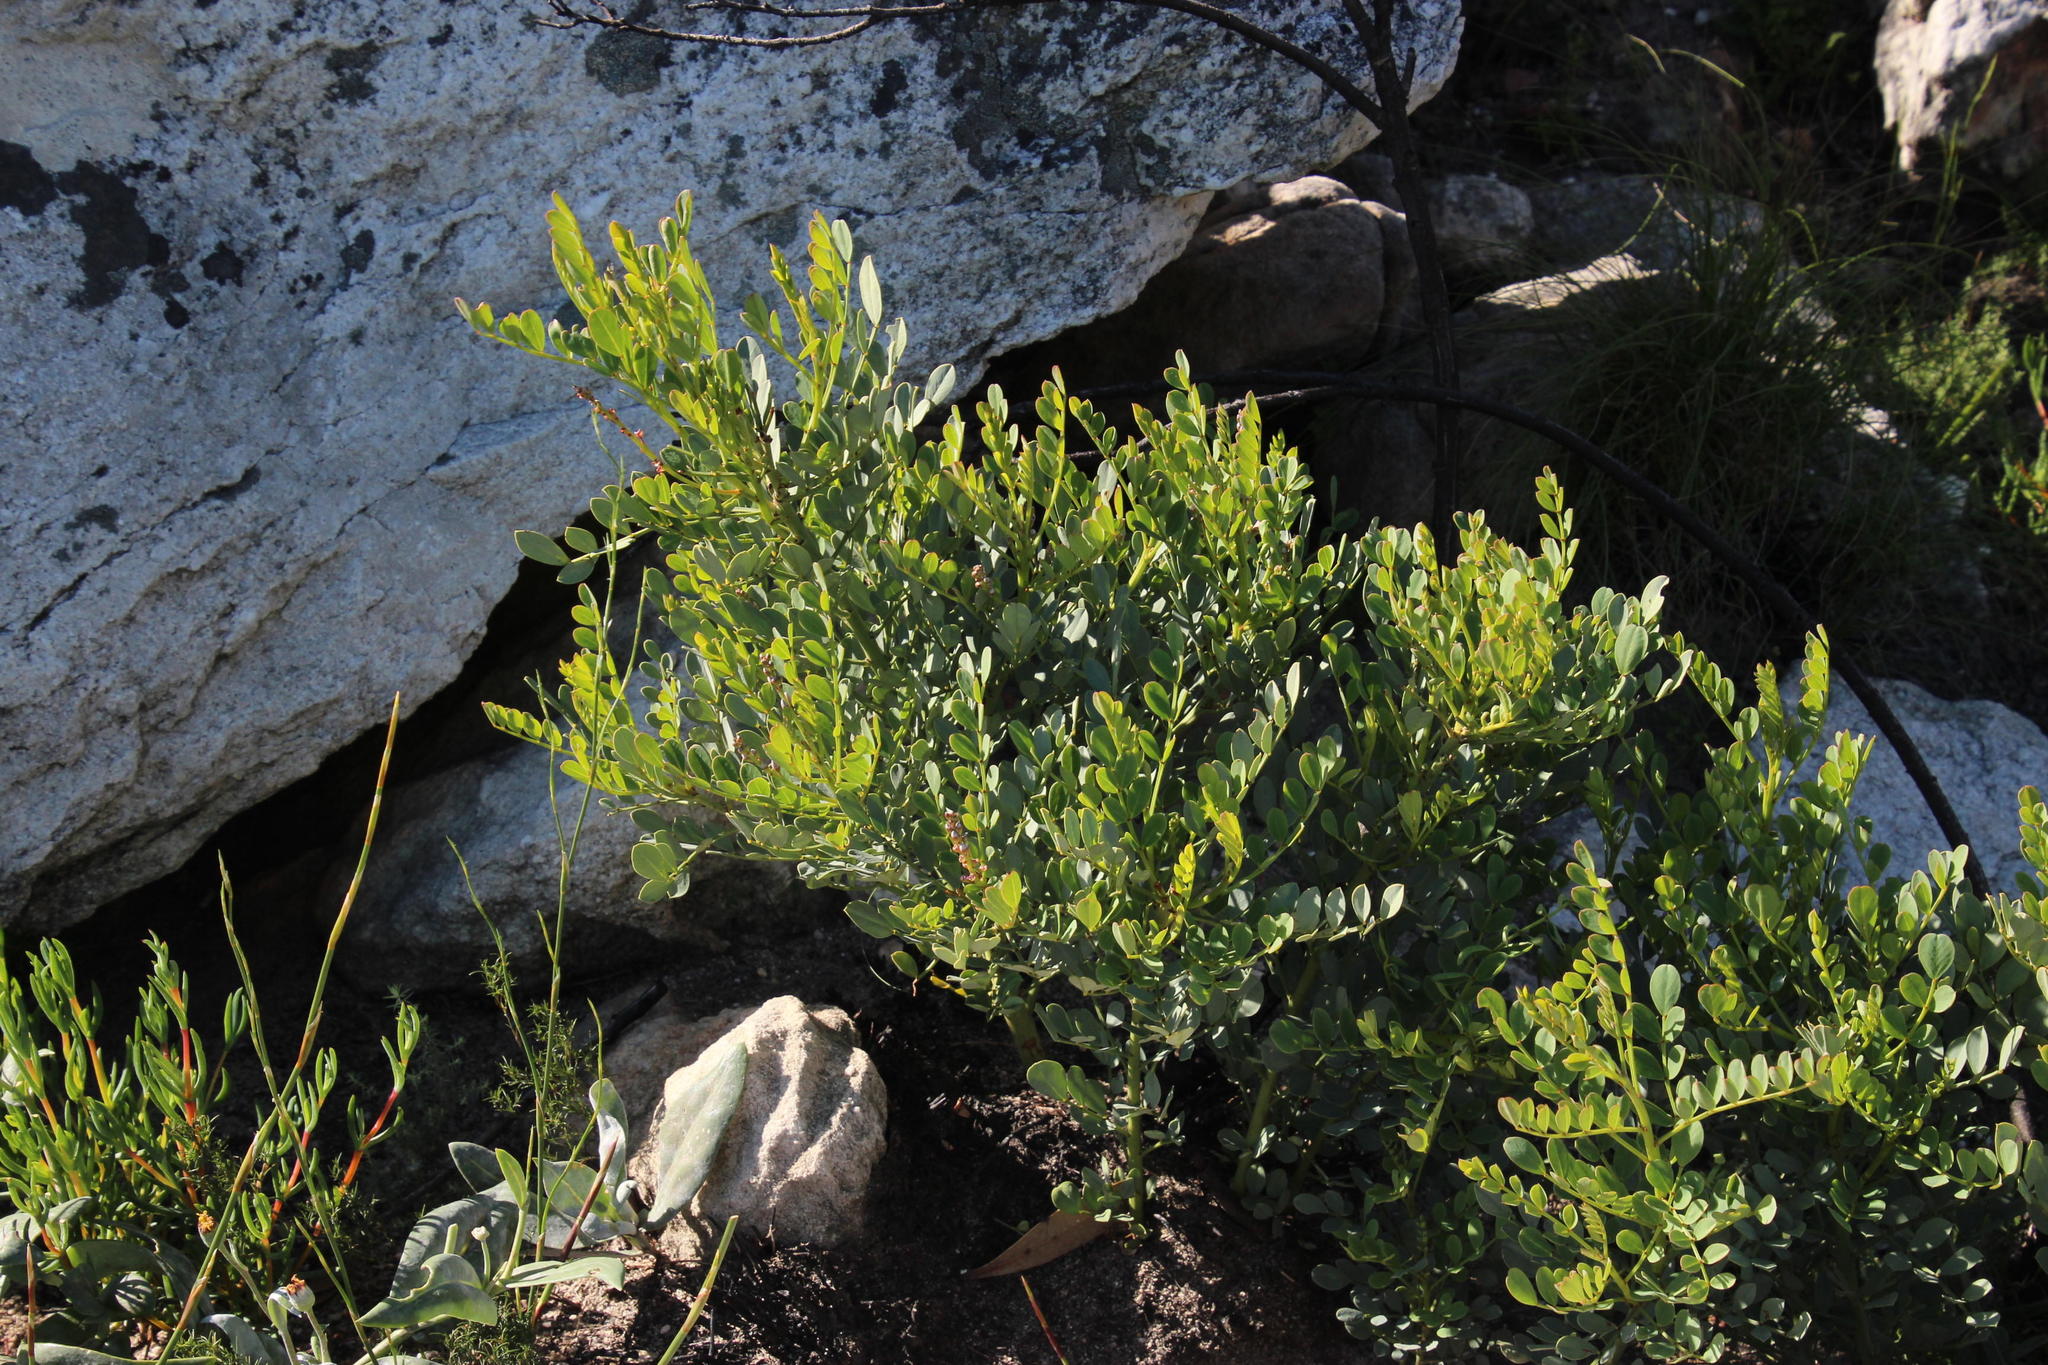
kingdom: Plantae
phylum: Tracheophyta
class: Magnoliopsida
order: Fabales
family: Fabaceae
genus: Indigofera
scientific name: Indigofera frutescens
